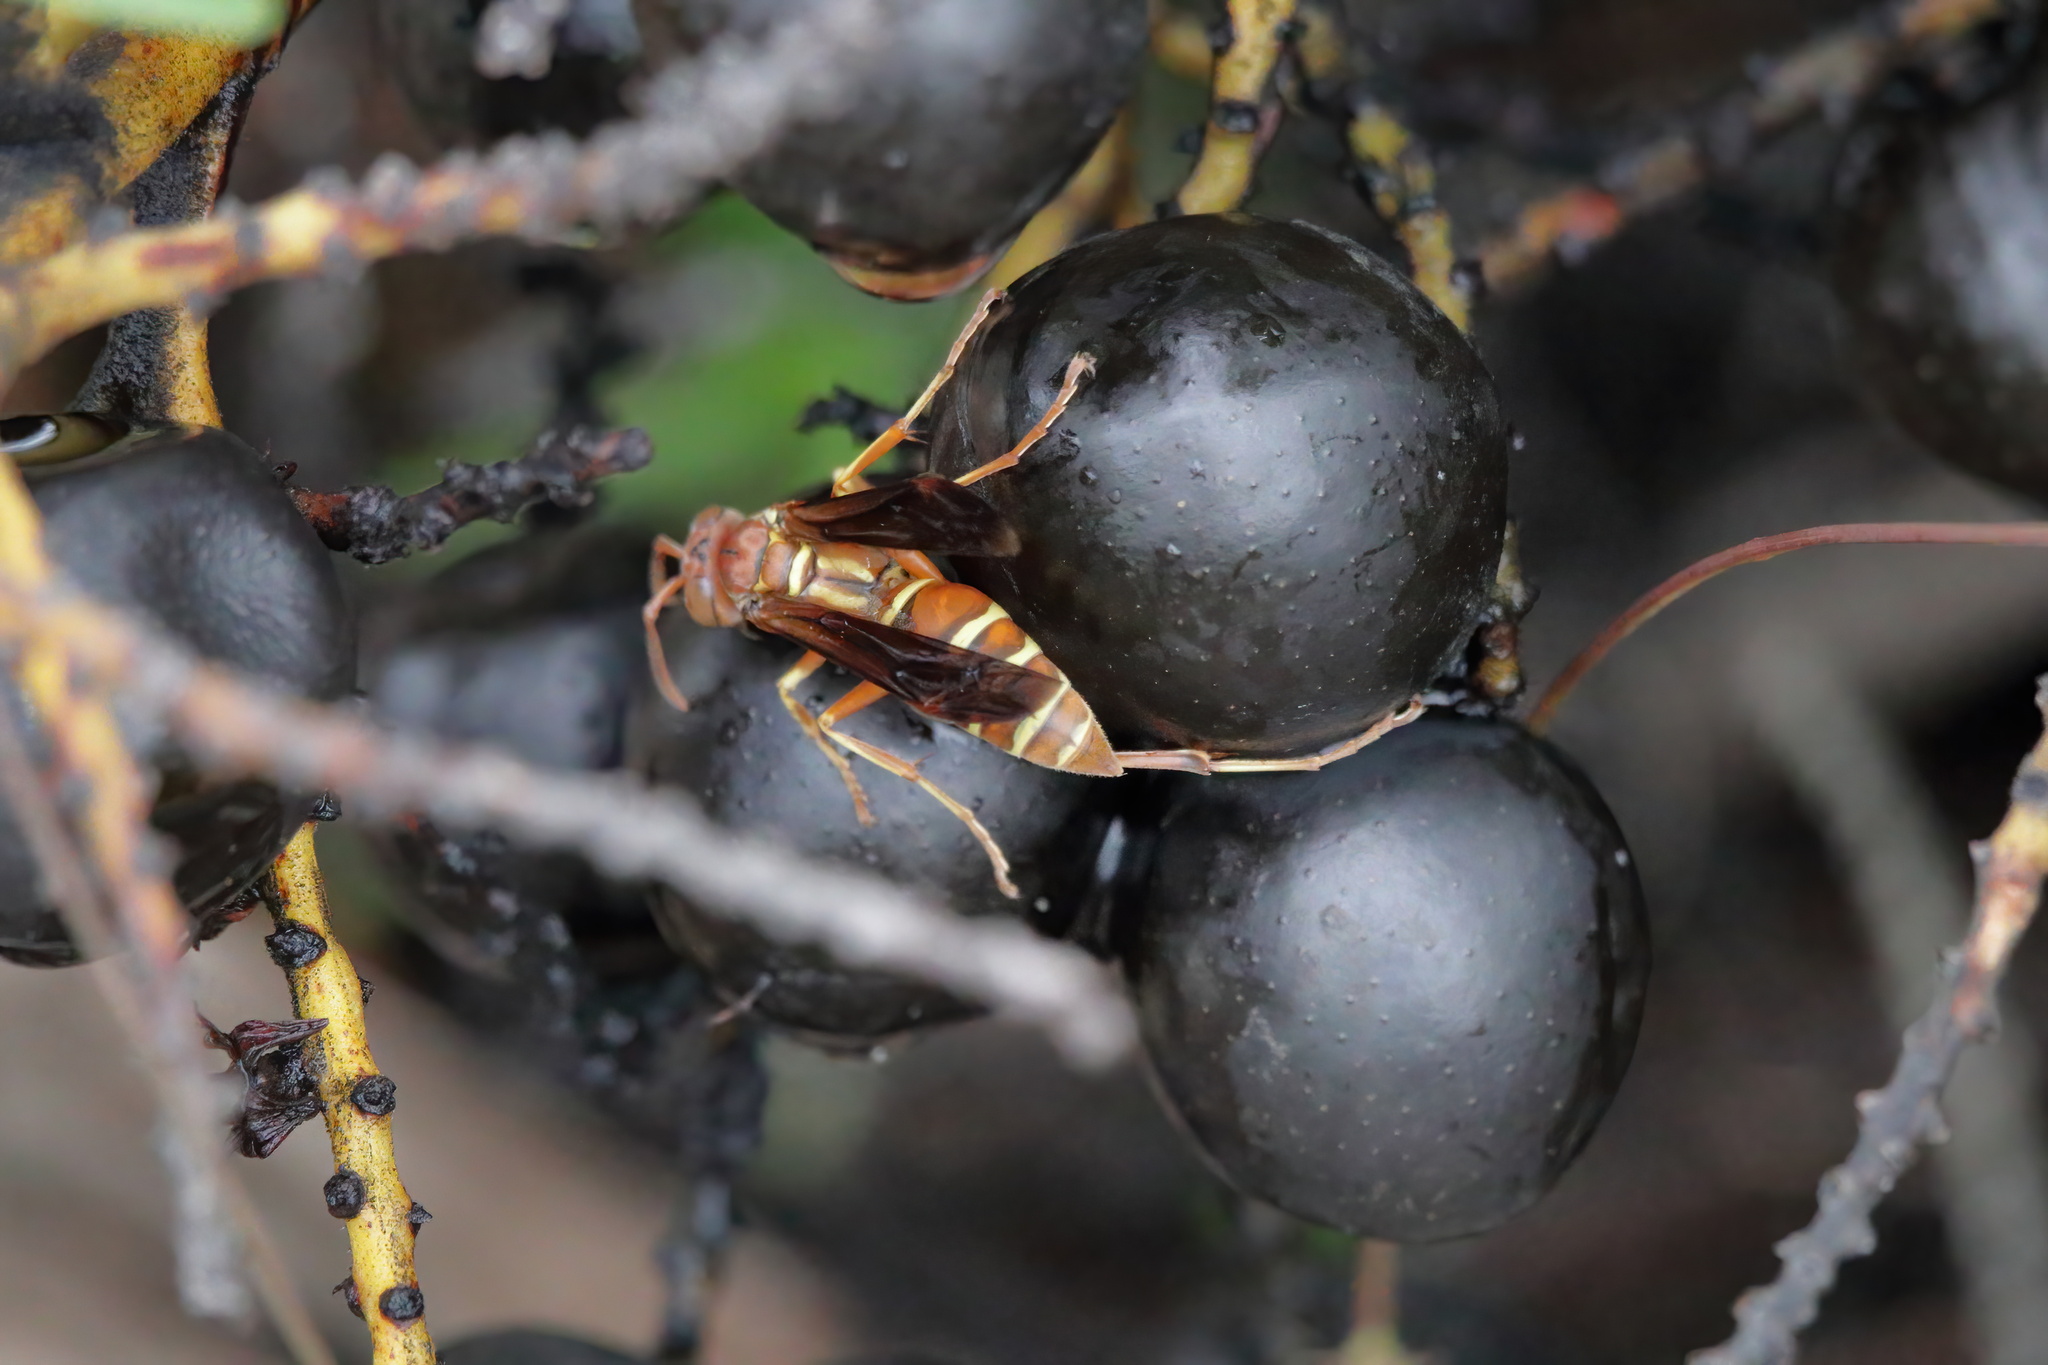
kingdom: Animalia
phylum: Arthropoda
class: Insecta
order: Hymenoptera
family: Eumenidae
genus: Polistes
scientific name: Polistes bellicosus
